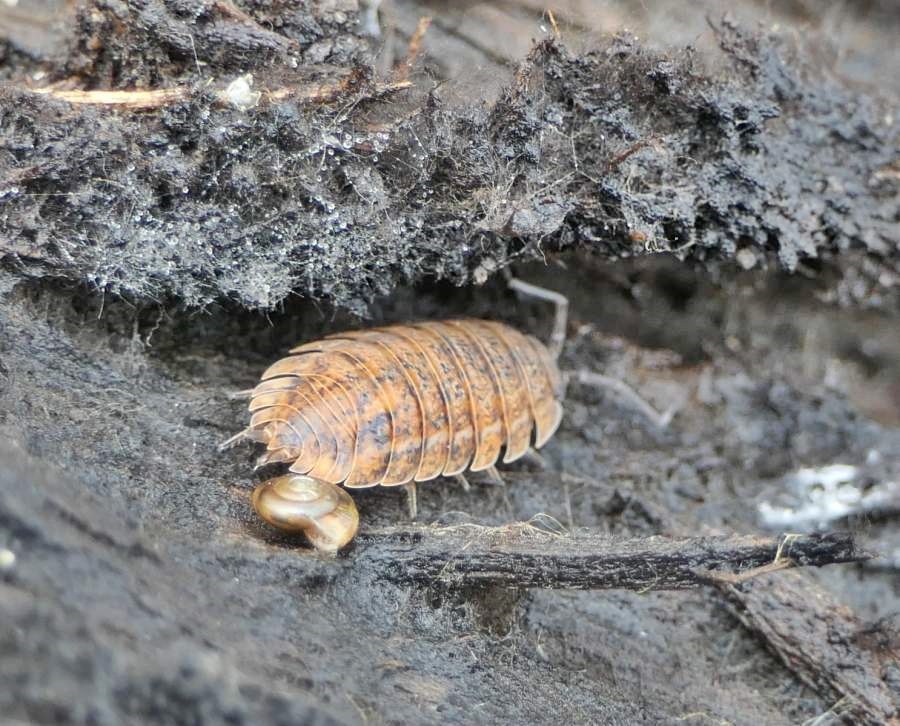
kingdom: Animalia
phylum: Arthropoda
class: Malacostraca
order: Isopoda
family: Trachelipodidae
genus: Trachelipus
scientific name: Trachelipus rathkii
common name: Isopod
